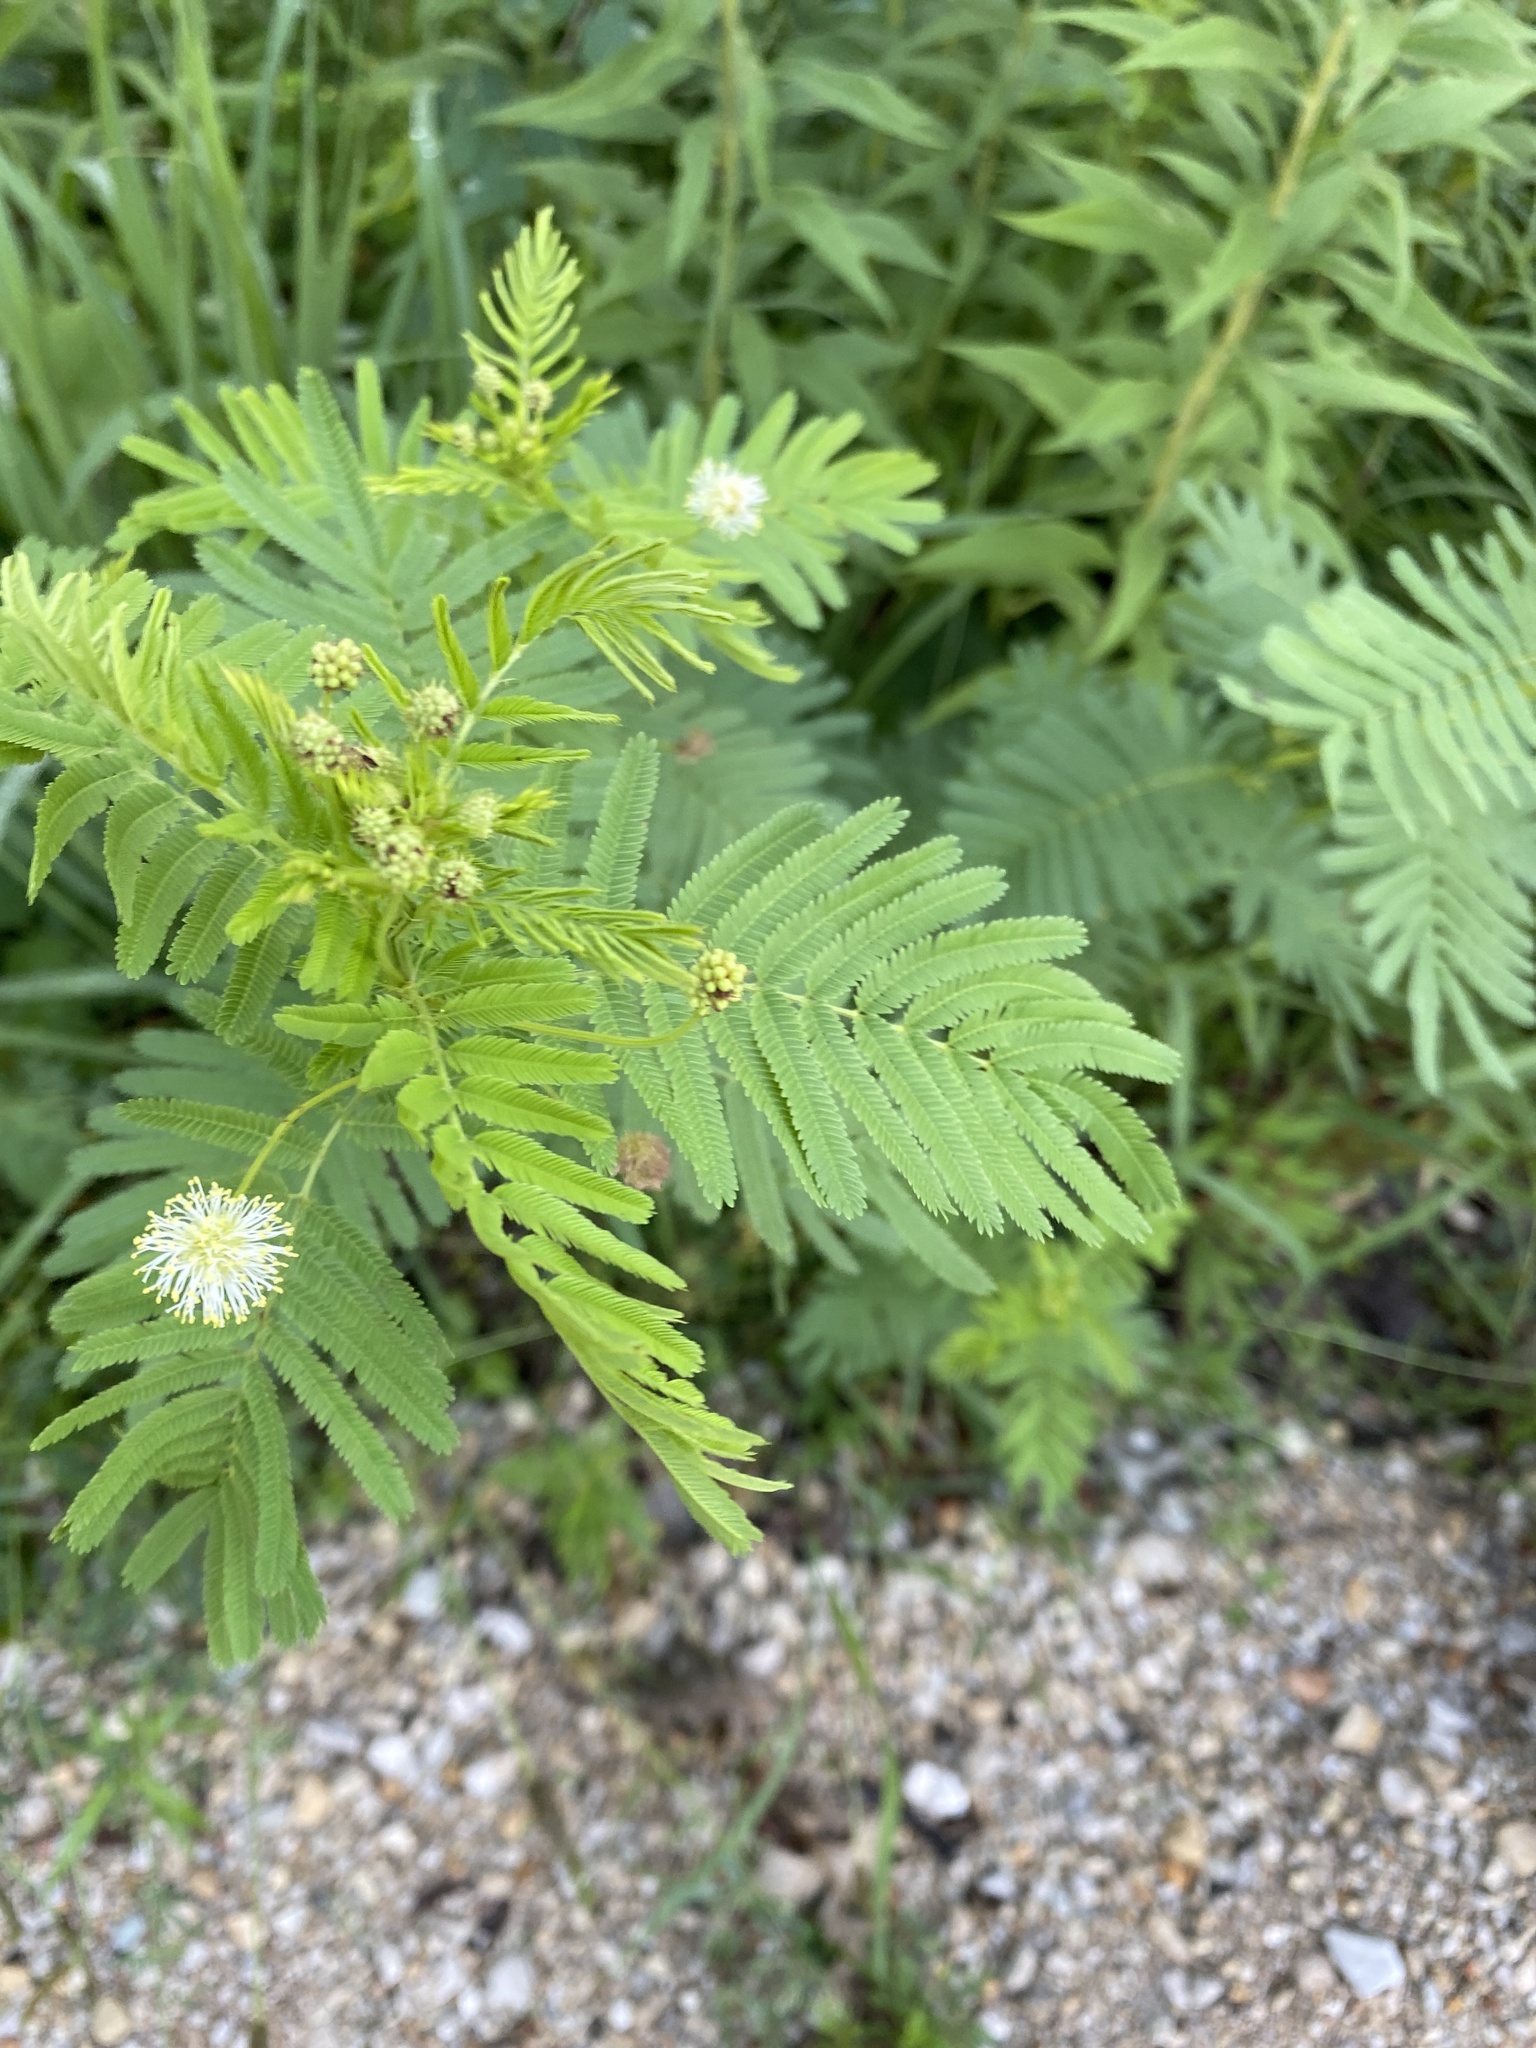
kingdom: Plantae
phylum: Tracheophyta
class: Magnoliopsida
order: Fabales
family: Fabaceae
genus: Desmanthus
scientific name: Desmanthus illinoensis
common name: Illinois bundle-flower
